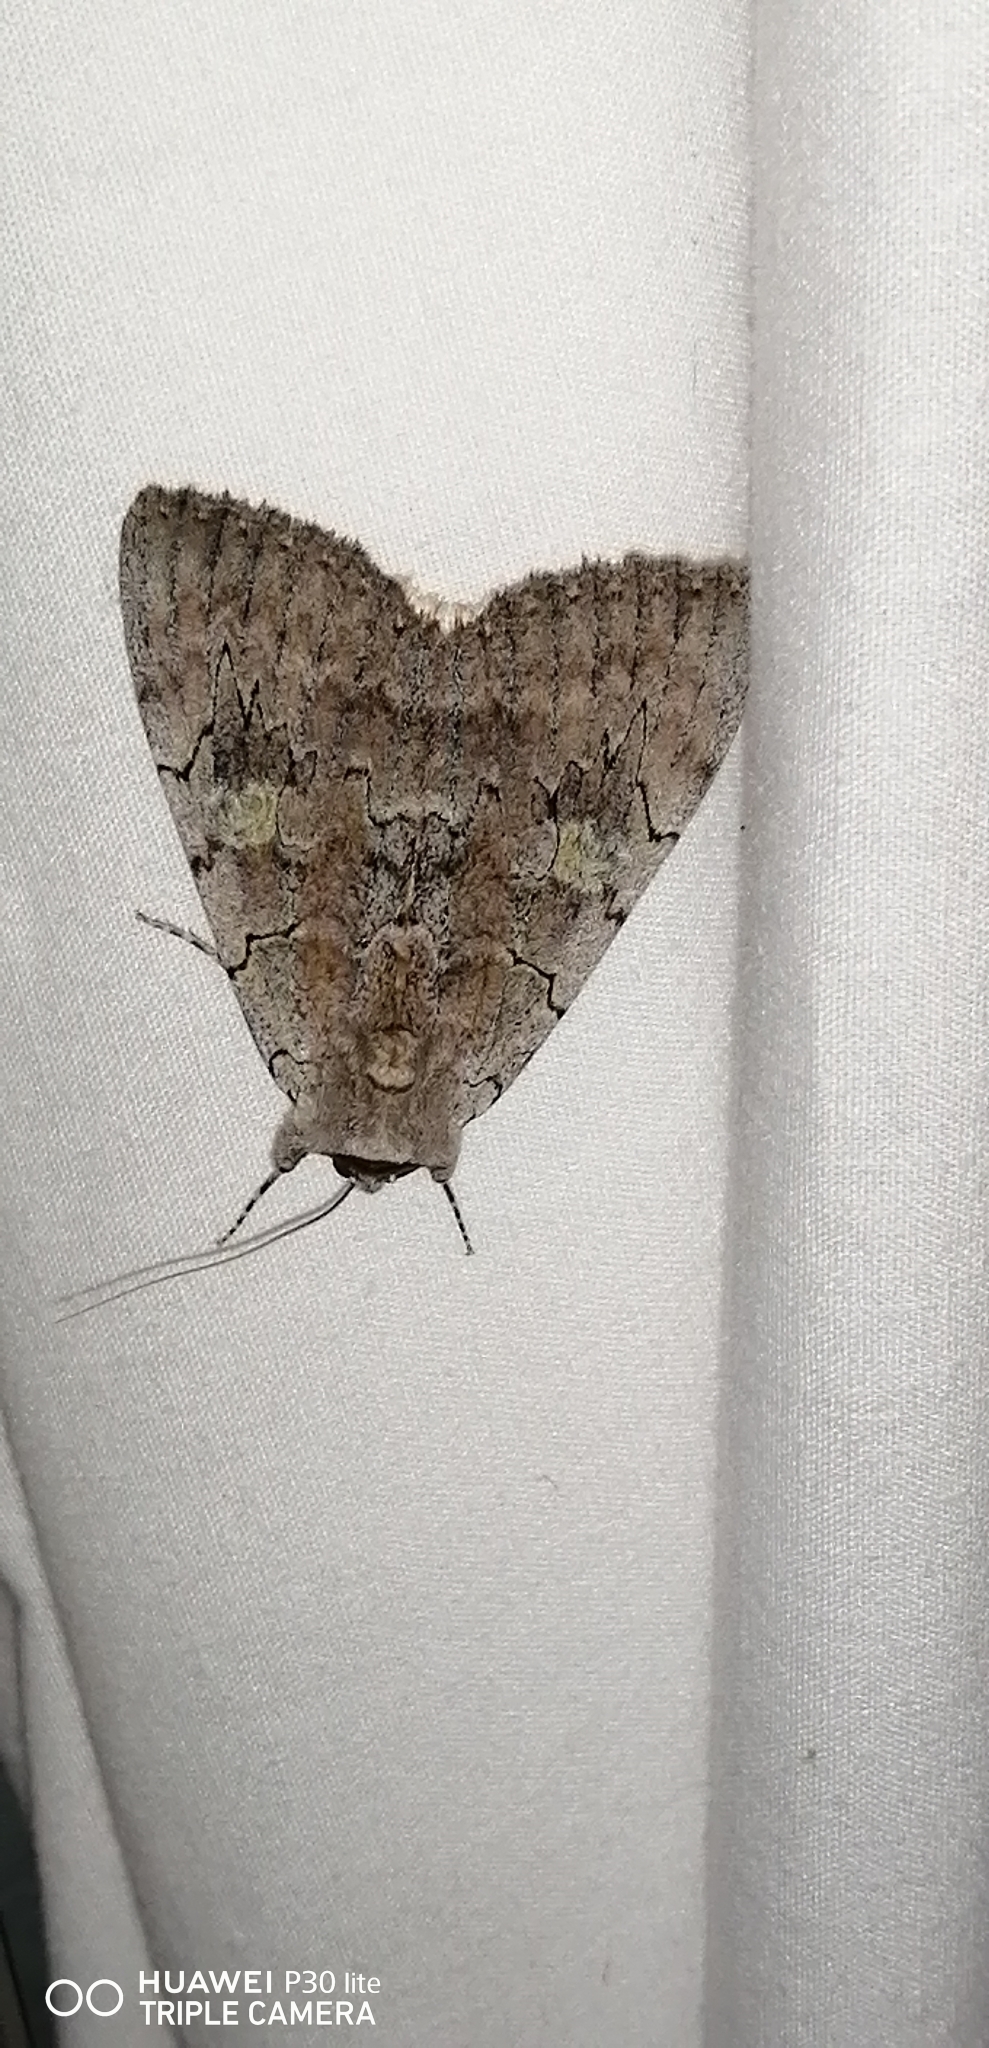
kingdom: Animalia
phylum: Arthropoda
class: Insecta
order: Lepidoptera
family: Erebidae
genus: Catocala
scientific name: Catocala concumbens
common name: Pink underwing
